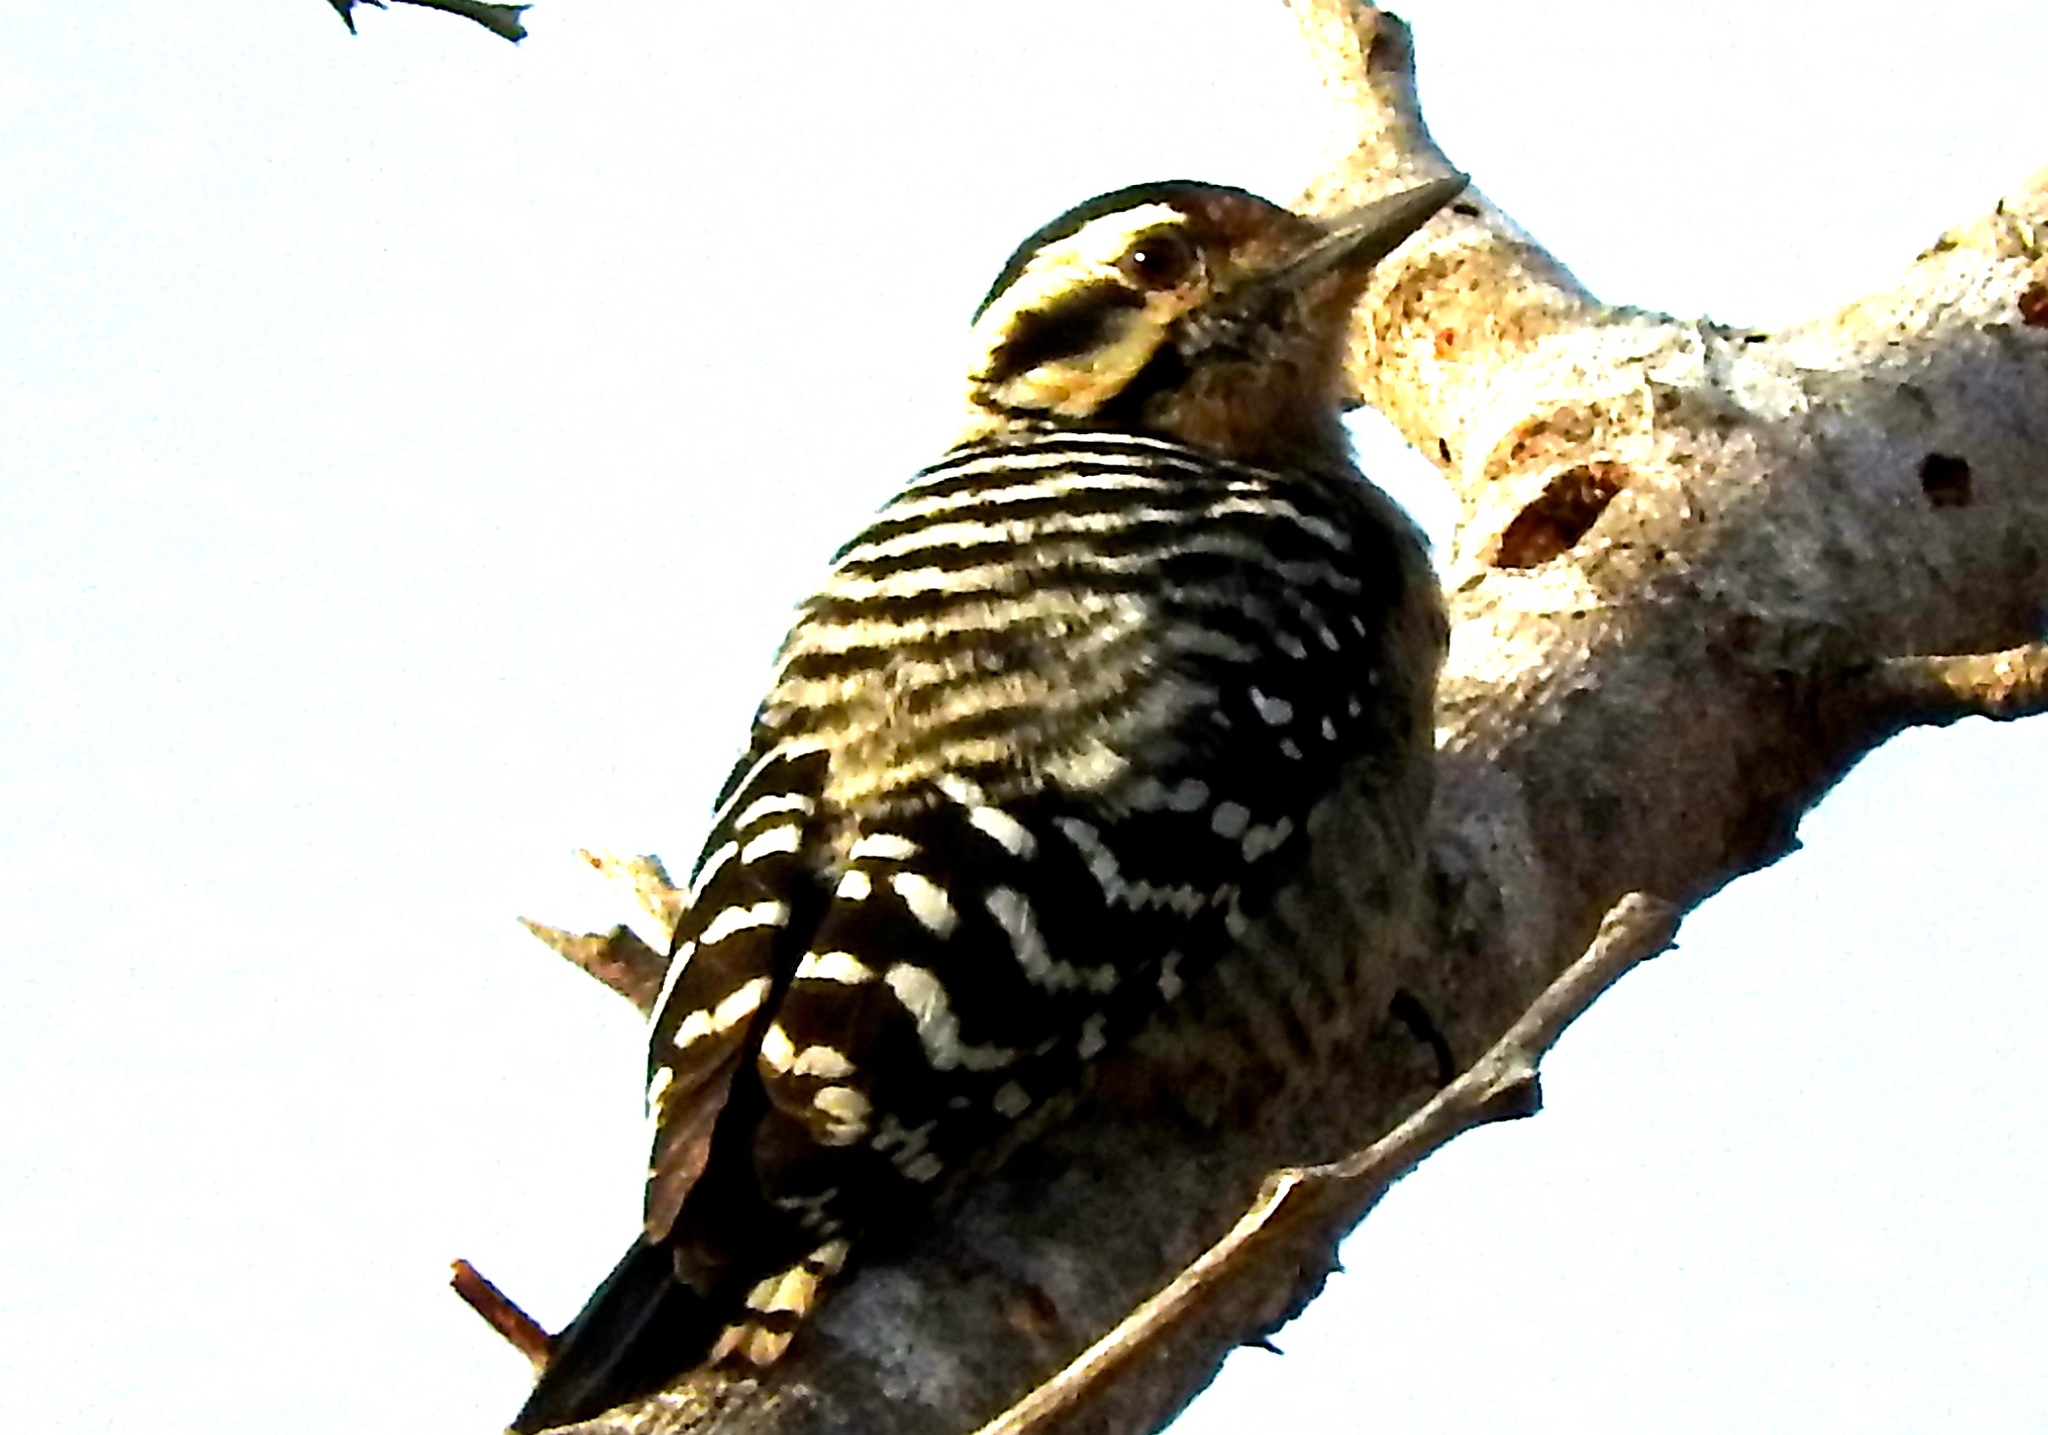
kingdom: Animalia
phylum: Chordata
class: Aves
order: Piciformes
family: Picidae
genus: Dryobates
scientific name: Dryobates scalaris
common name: Ladder-backed woodpecker
